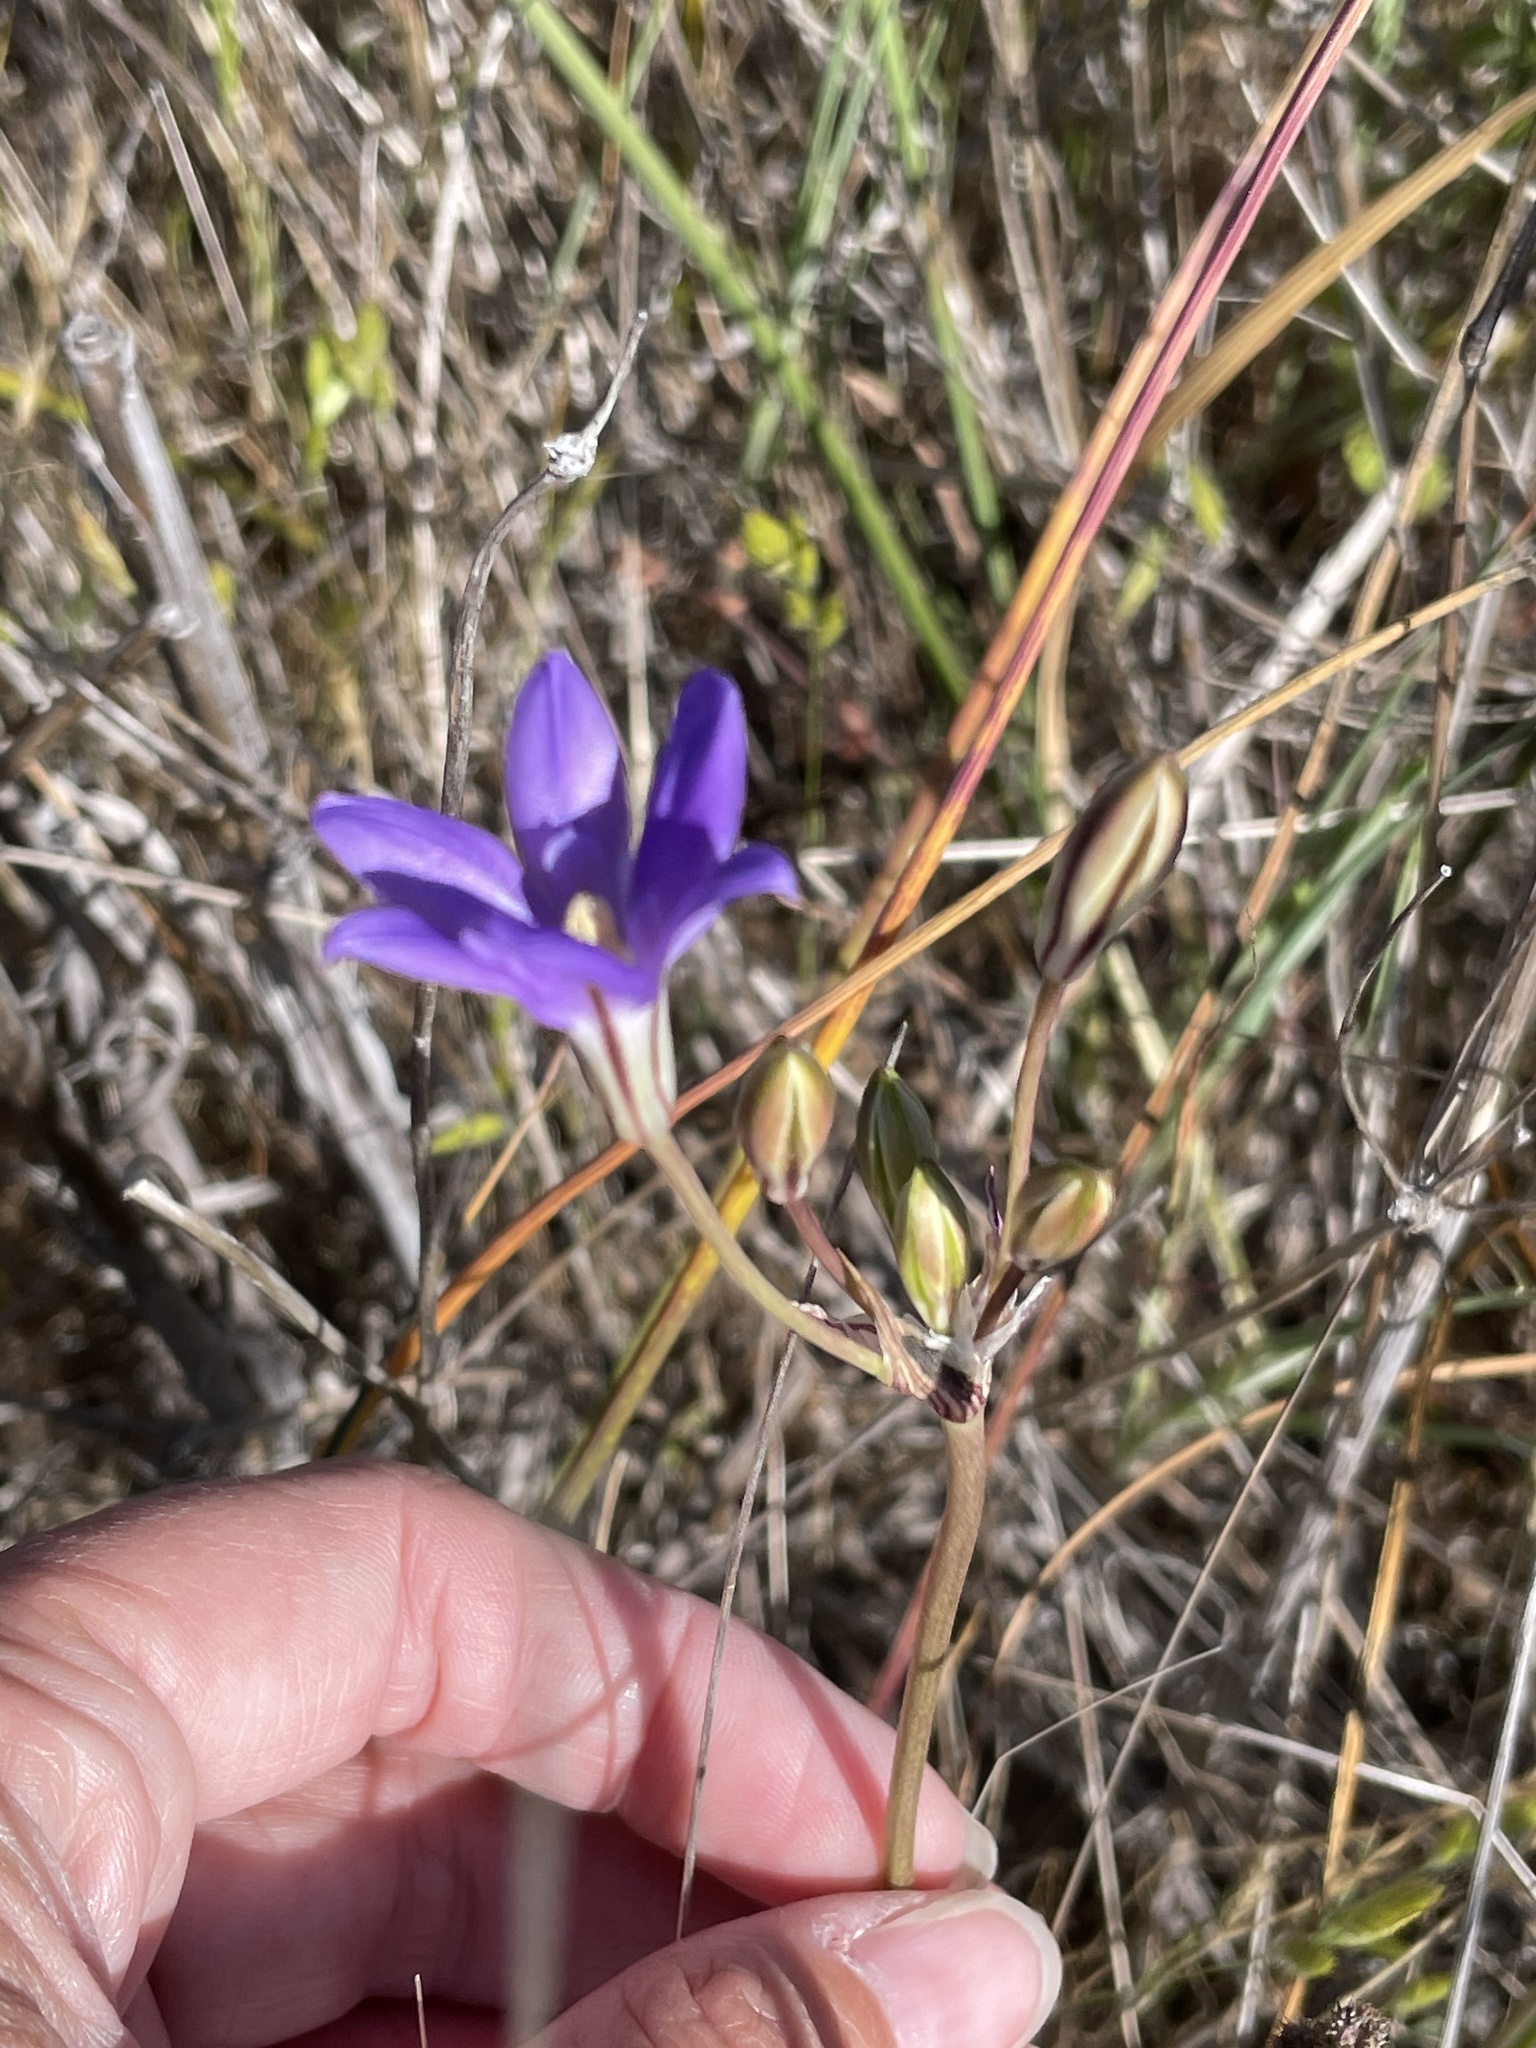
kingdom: Plantae
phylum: Tracheophyta
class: Liliopsida
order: Asparagales
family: Asparagaceae
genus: Brodiaea
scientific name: Brodiaea kinkiensis
